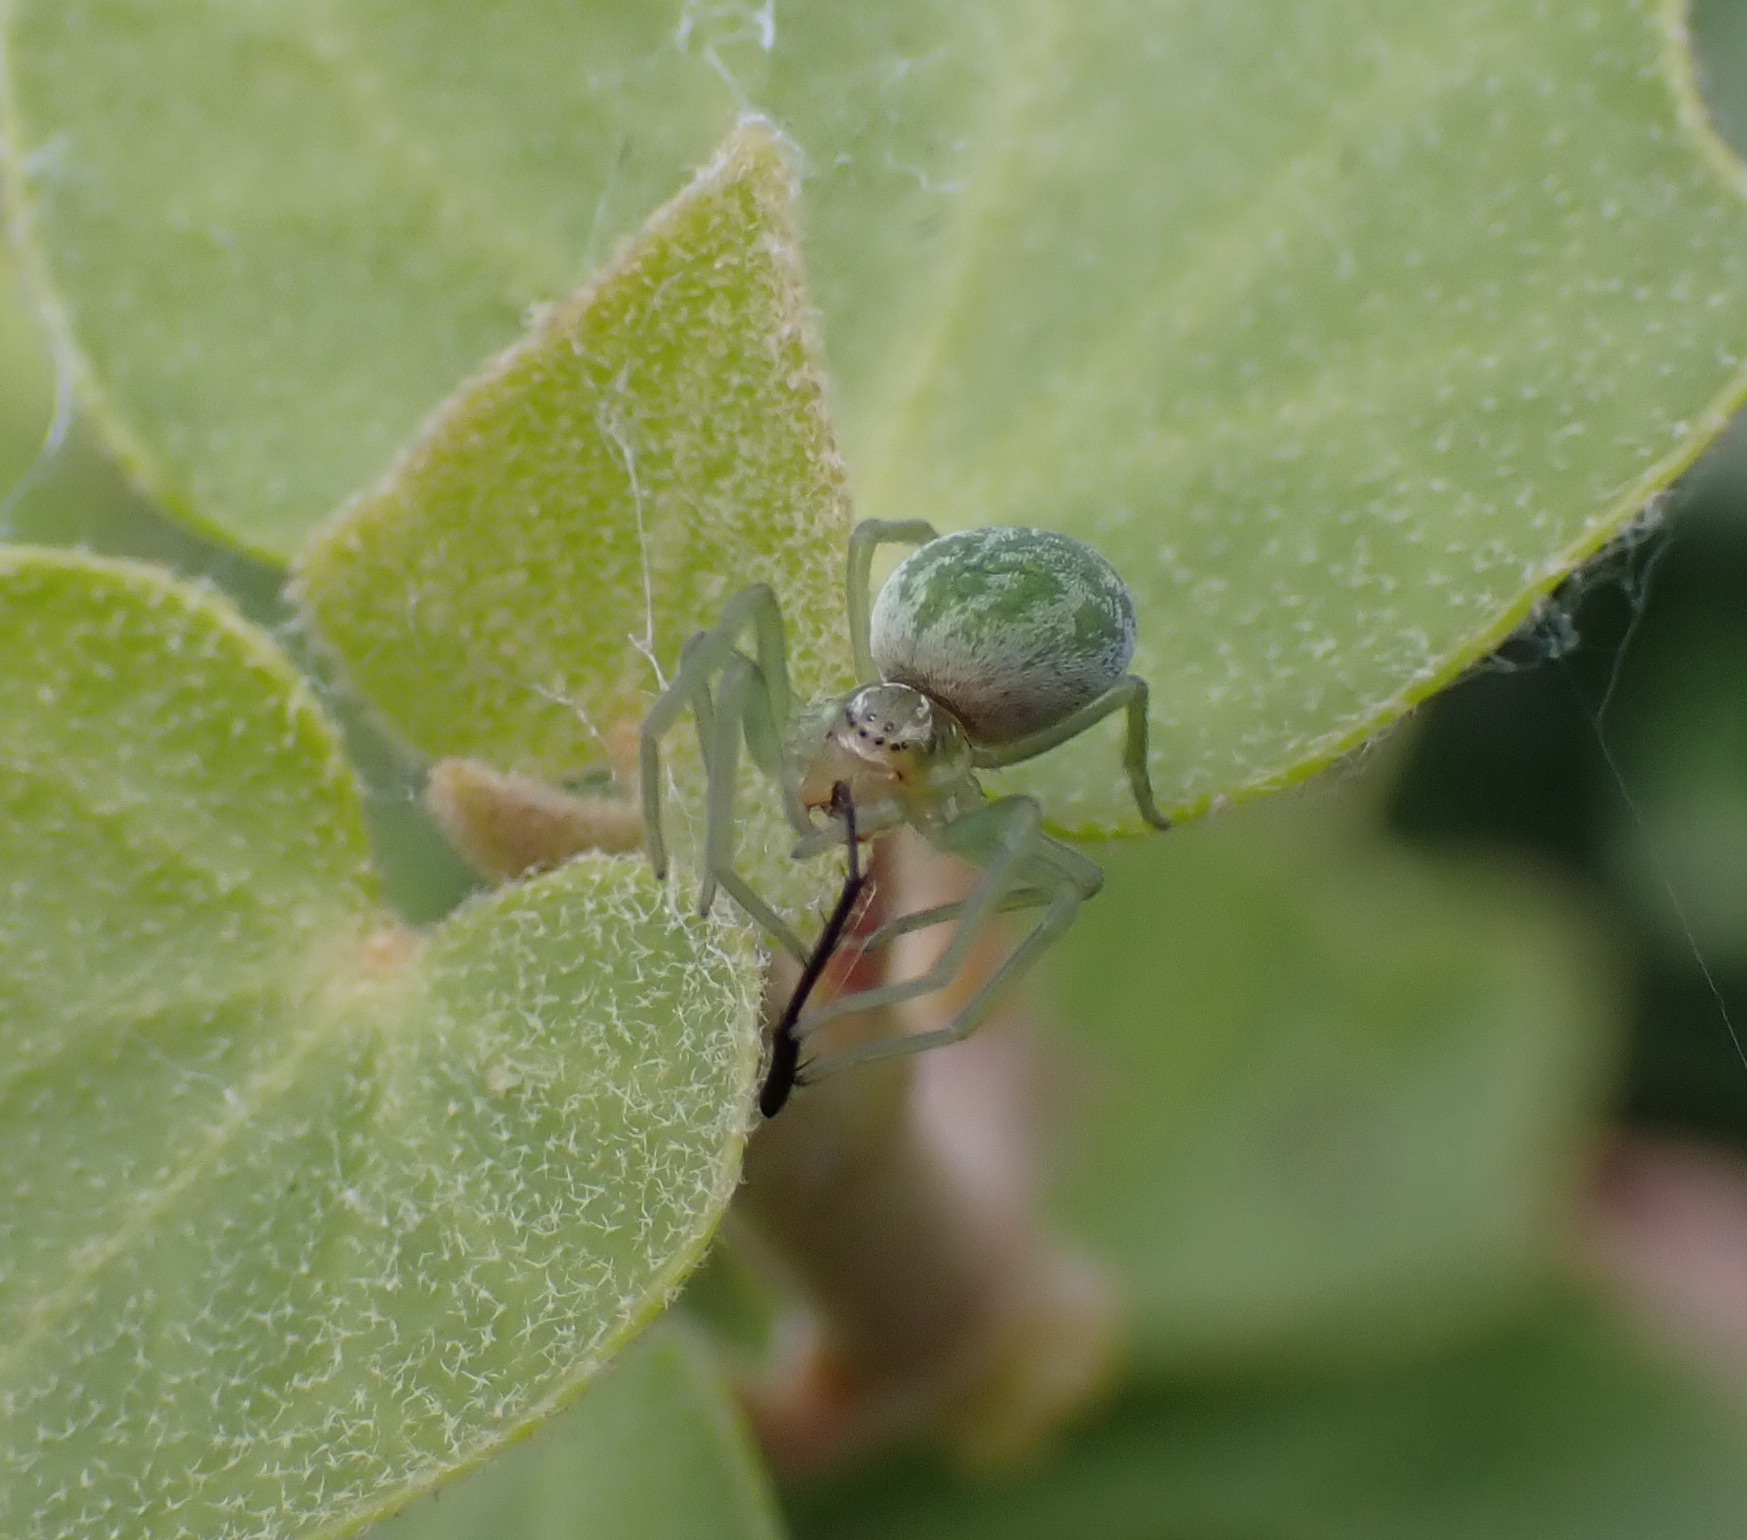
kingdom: Animalia
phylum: Arthropoda
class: Arachnida
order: Araneae
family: Dictynidae
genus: Nigma
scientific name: Nigma walckenaeri
